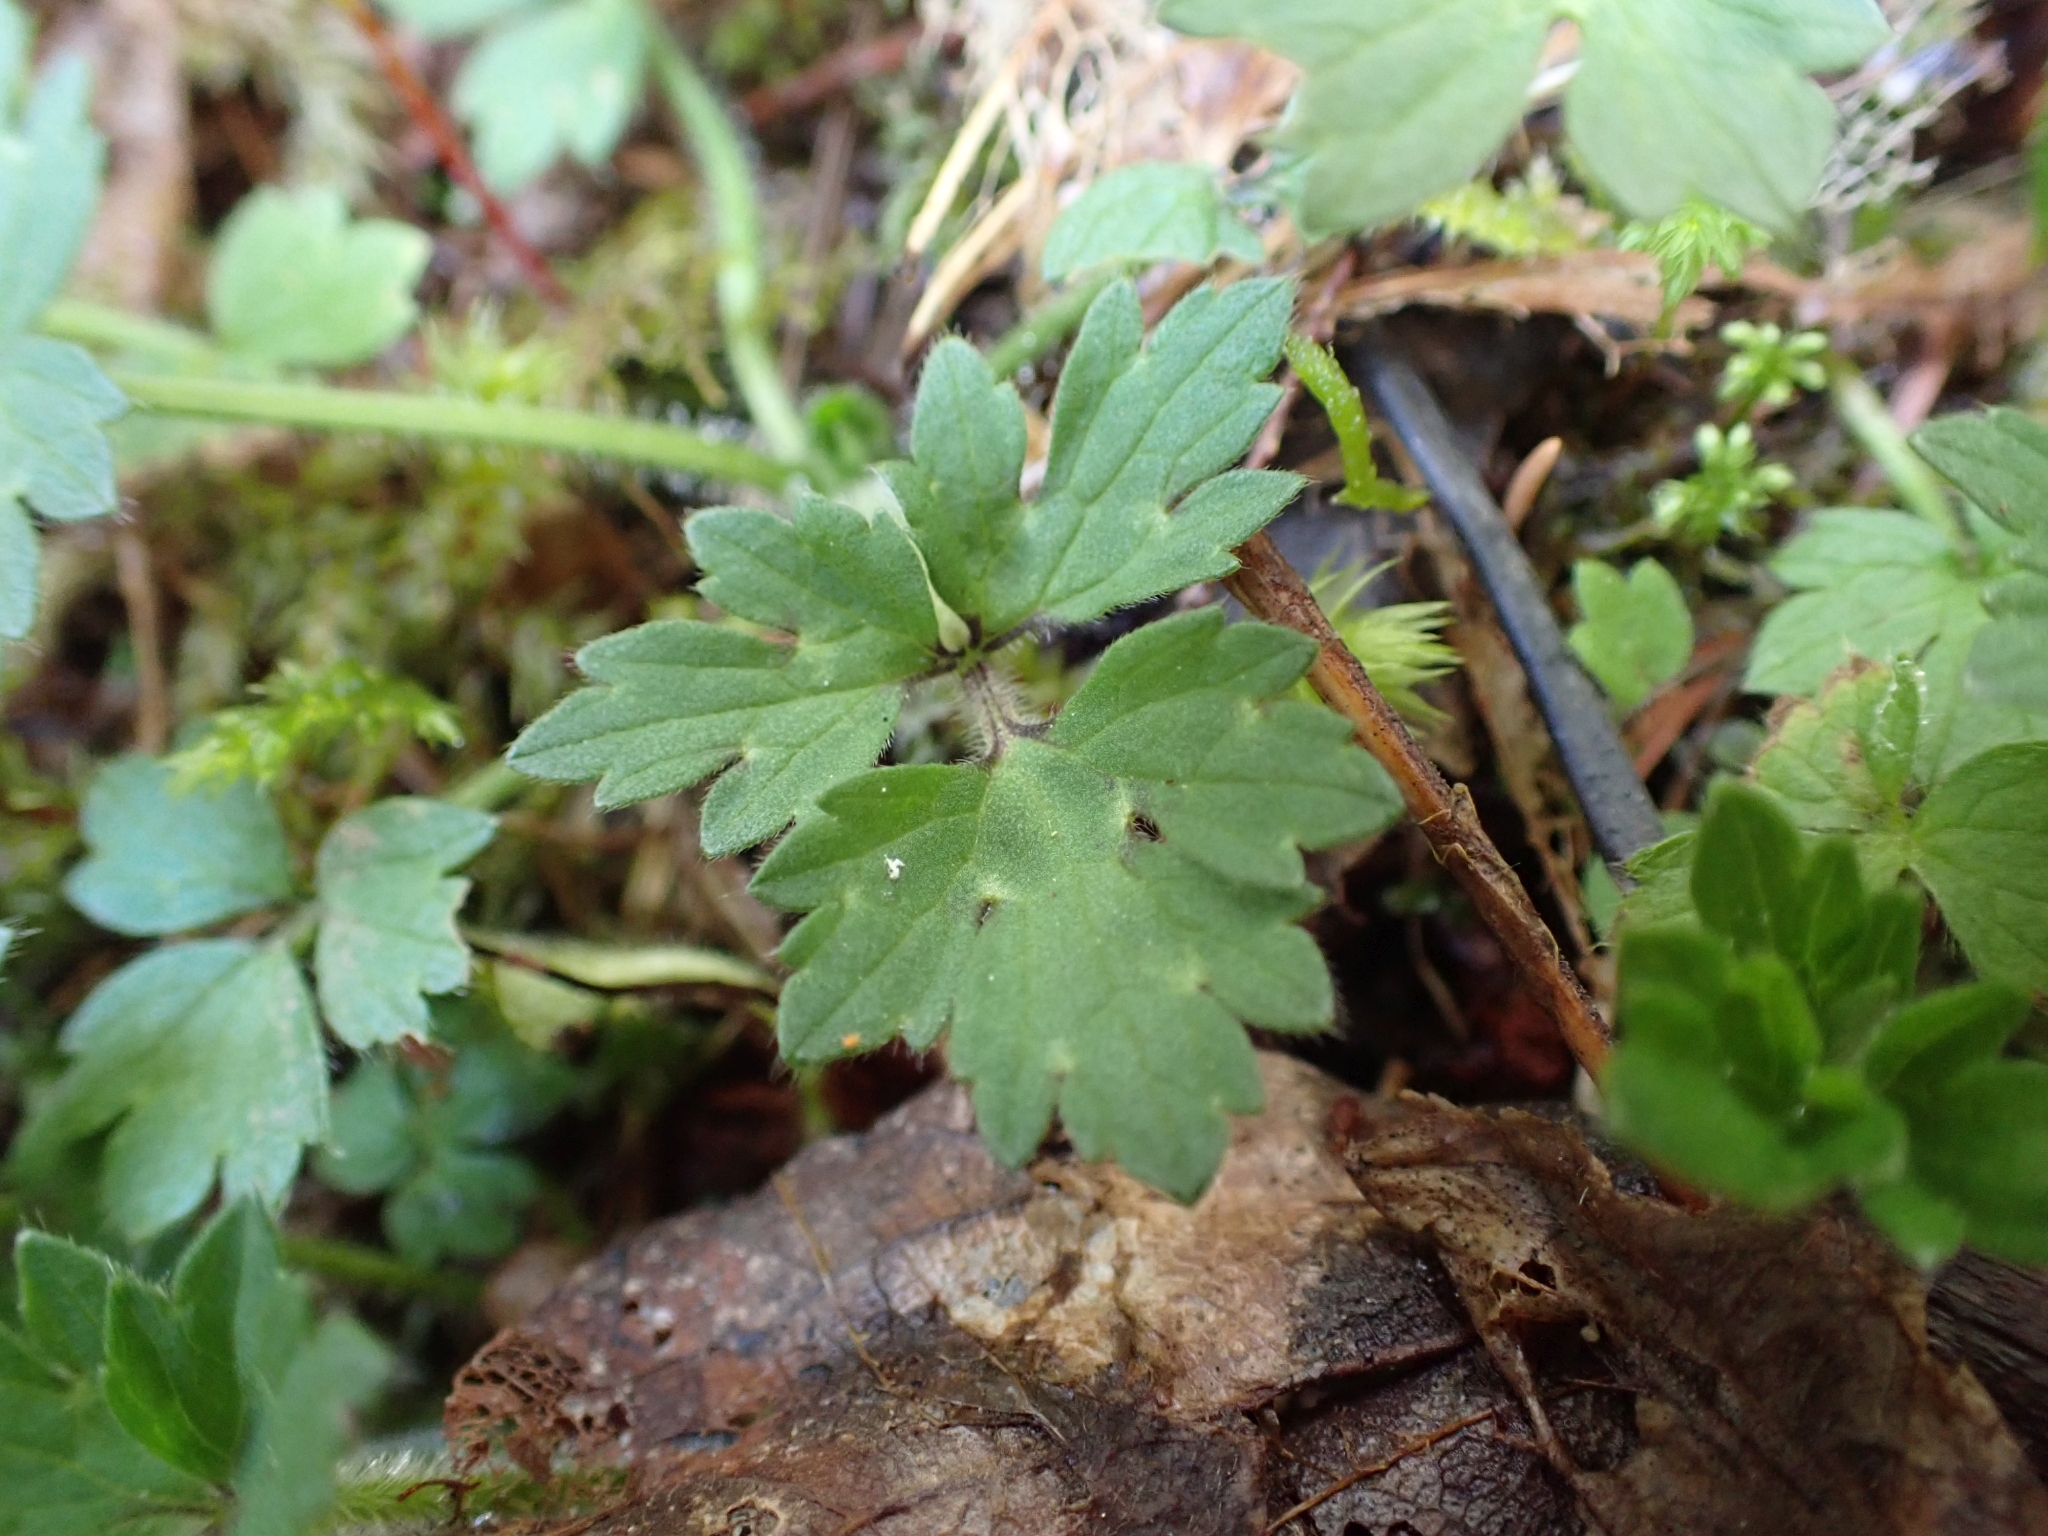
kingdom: Plantae
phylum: Tracheophyta
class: Magnoliopsida
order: Ranunculales
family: Ranunculaceae
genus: Ranunculus
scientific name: Ranunculus repens
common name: Creeping buttercup
